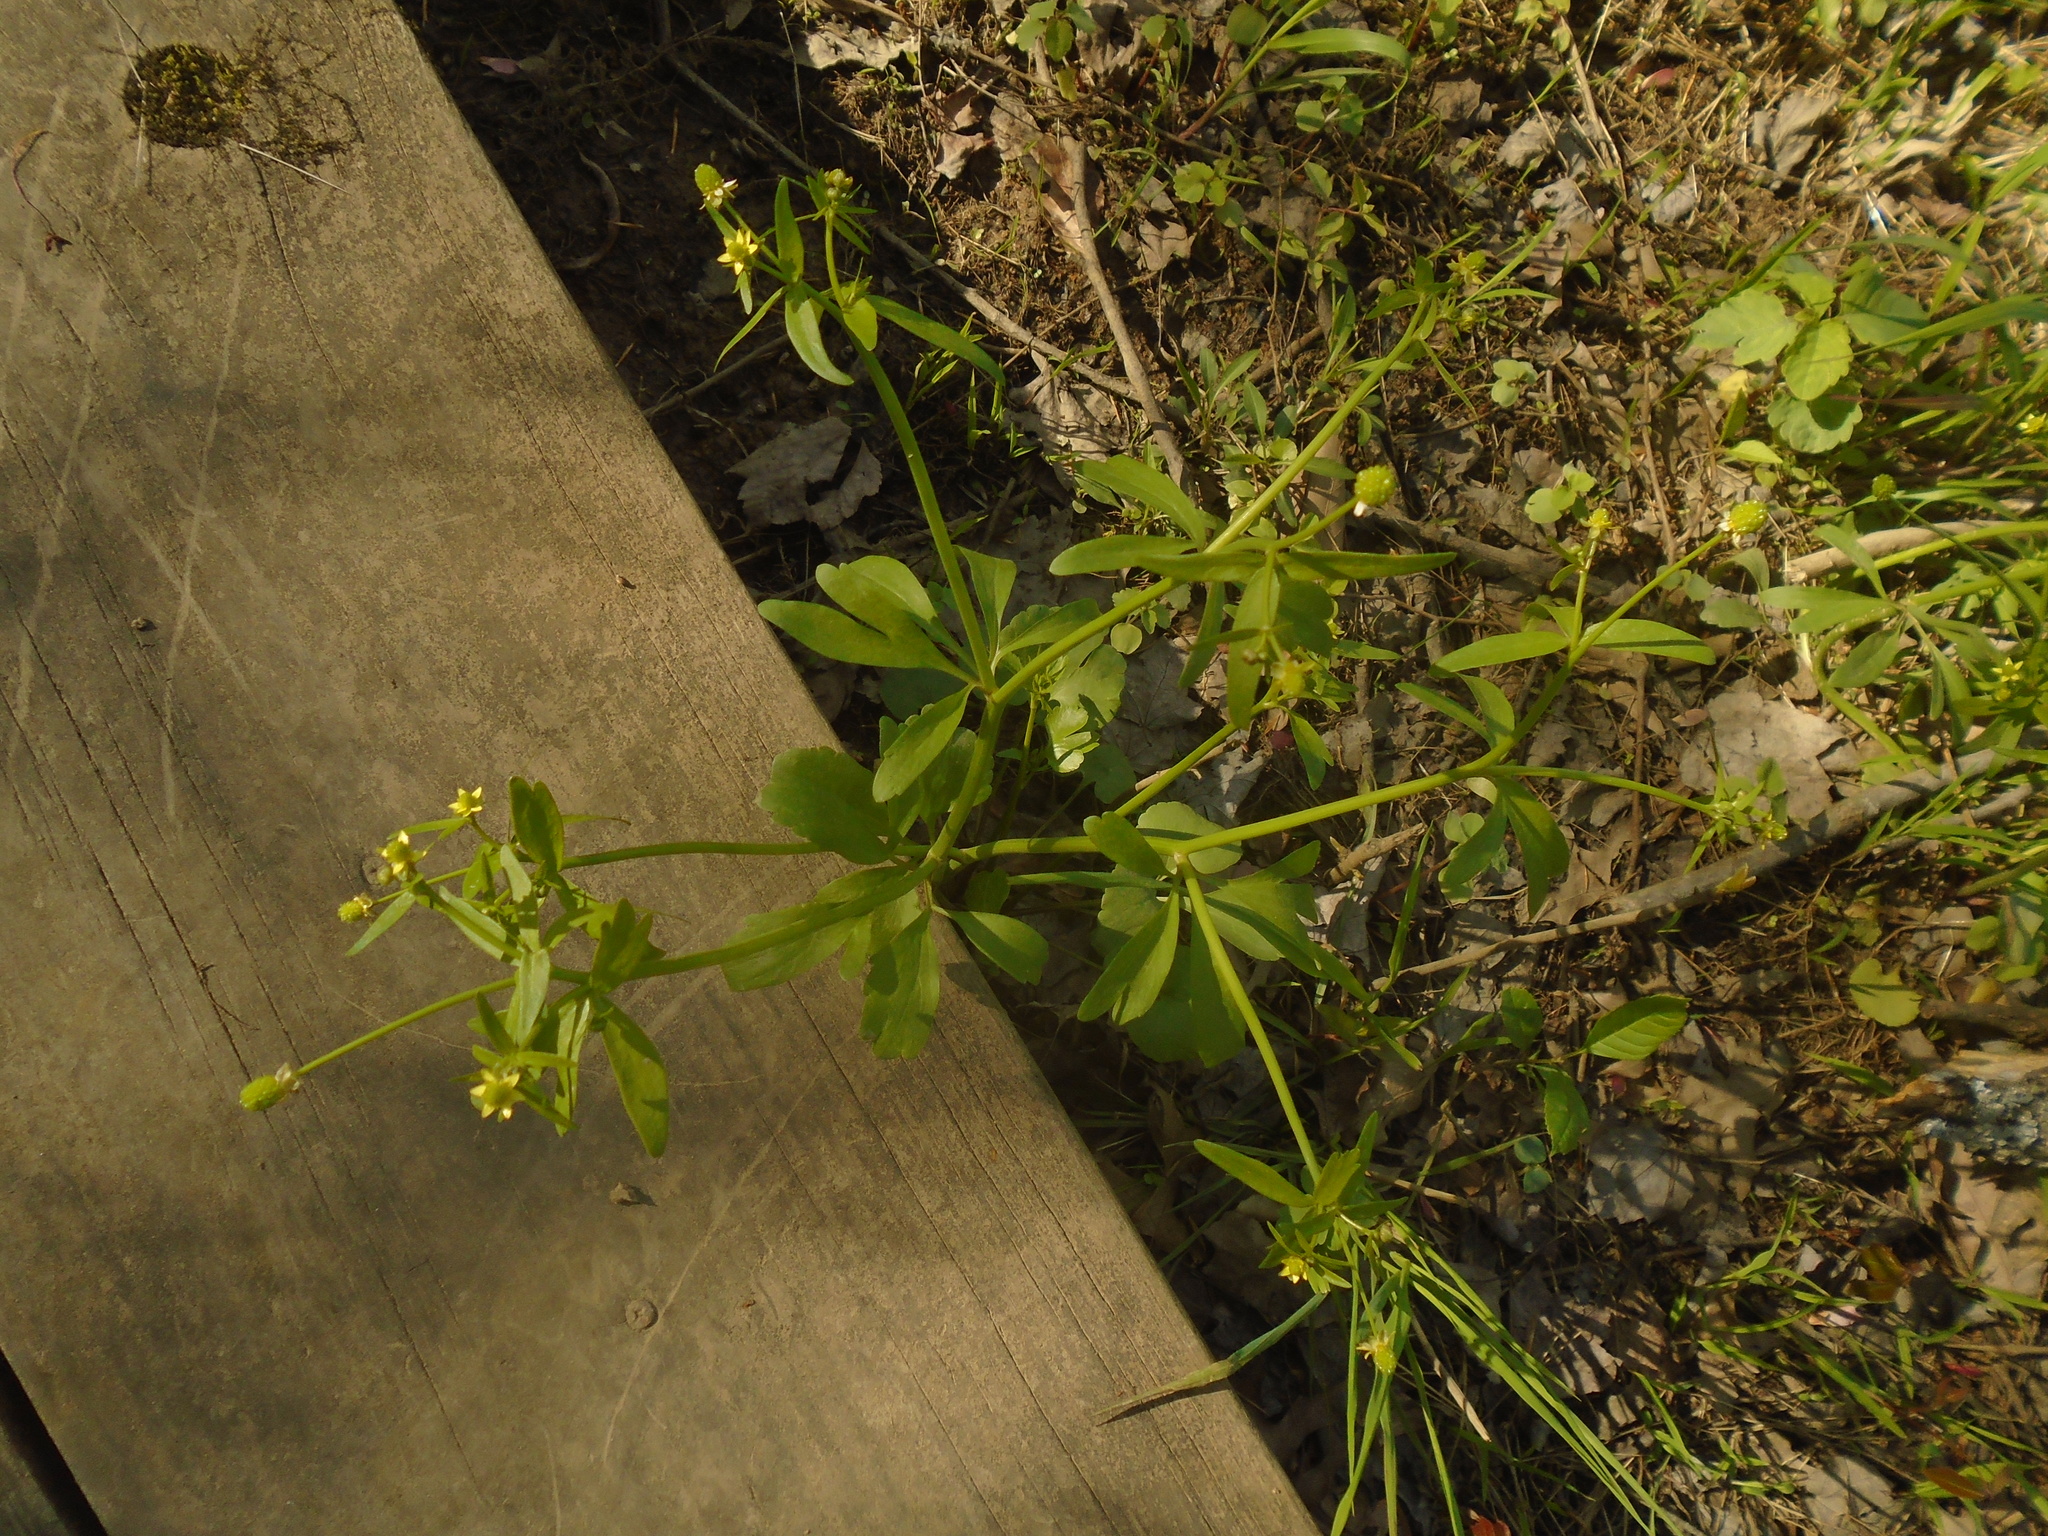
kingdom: Plantae
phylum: Tracheophyta
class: Magnoliopsida
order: Ranunculales
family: Ranunculaceae
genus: Ranunculus
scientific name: Ranunculus abortivus
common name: Early wood buttercup
